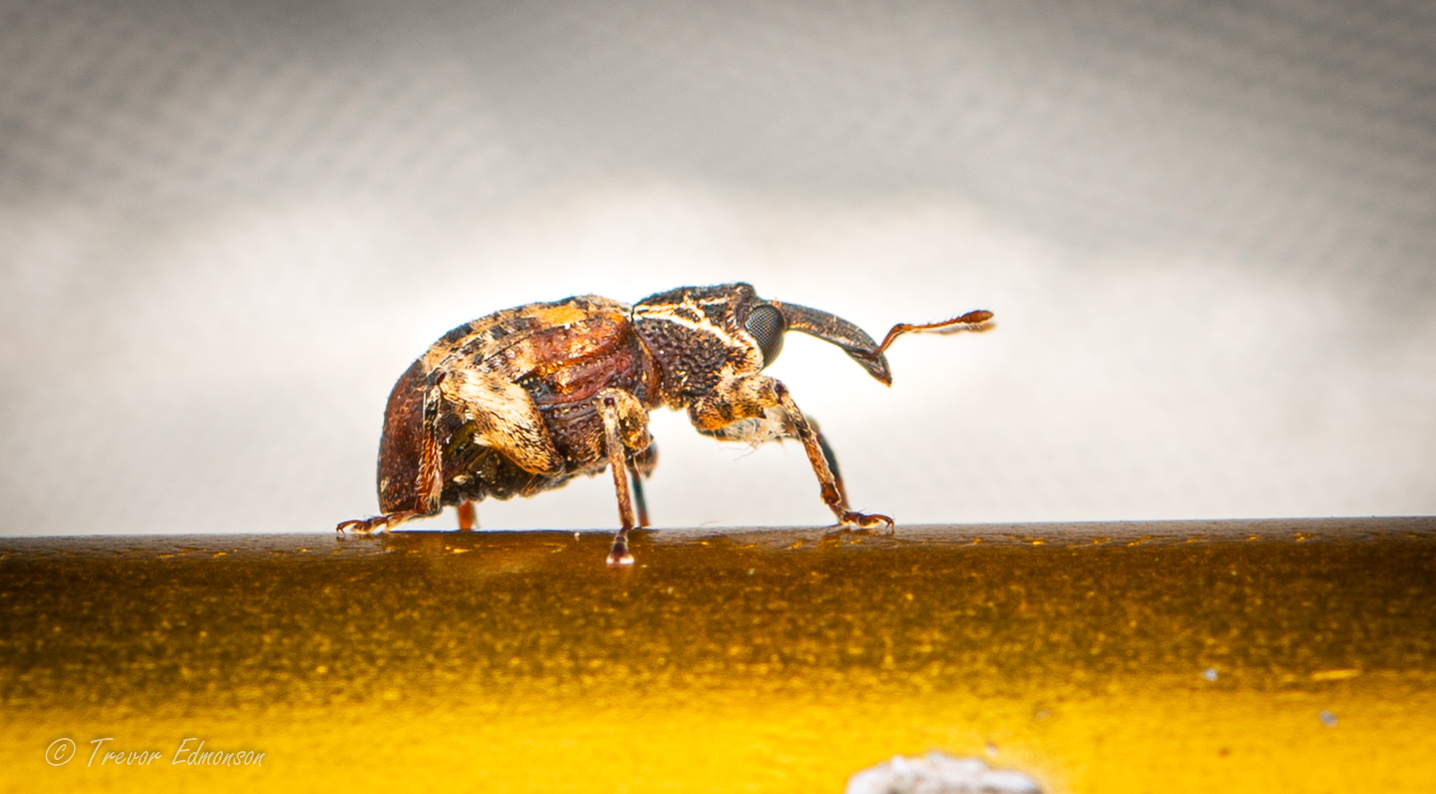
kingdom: Animalia
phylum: Arthropoda
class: Insecta
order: Coleoptera
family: Curculionidae
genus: Conotrachelus
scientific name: Conotrachelus anaglypticus
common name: Cambium curculio
